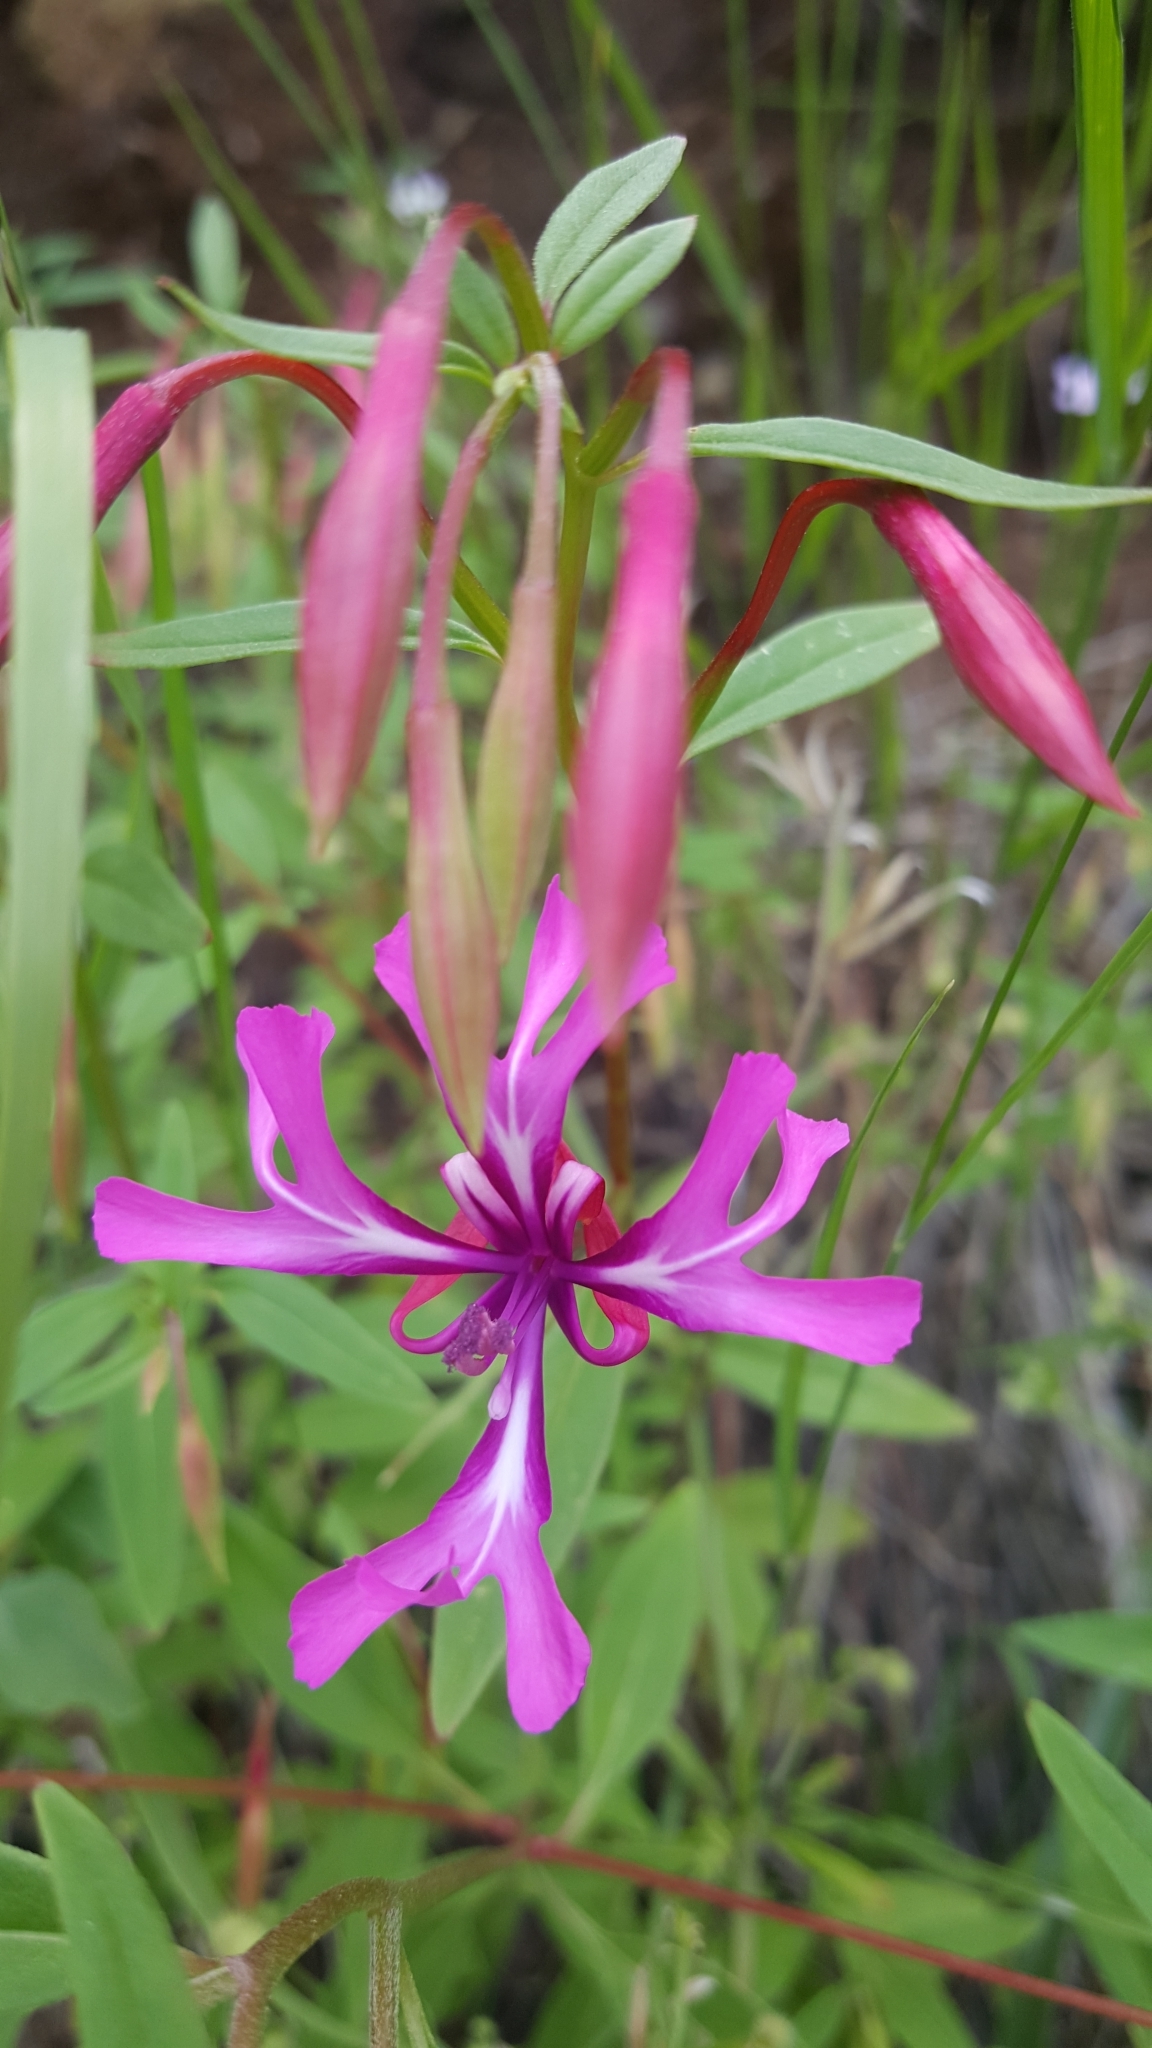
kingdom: Plantae
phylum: Tracheophyta
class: Magnoliopsida
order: Myrtales
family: Onagraceae
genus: Clarkia
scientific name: Clarkia concinna
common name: Red-ribbons
